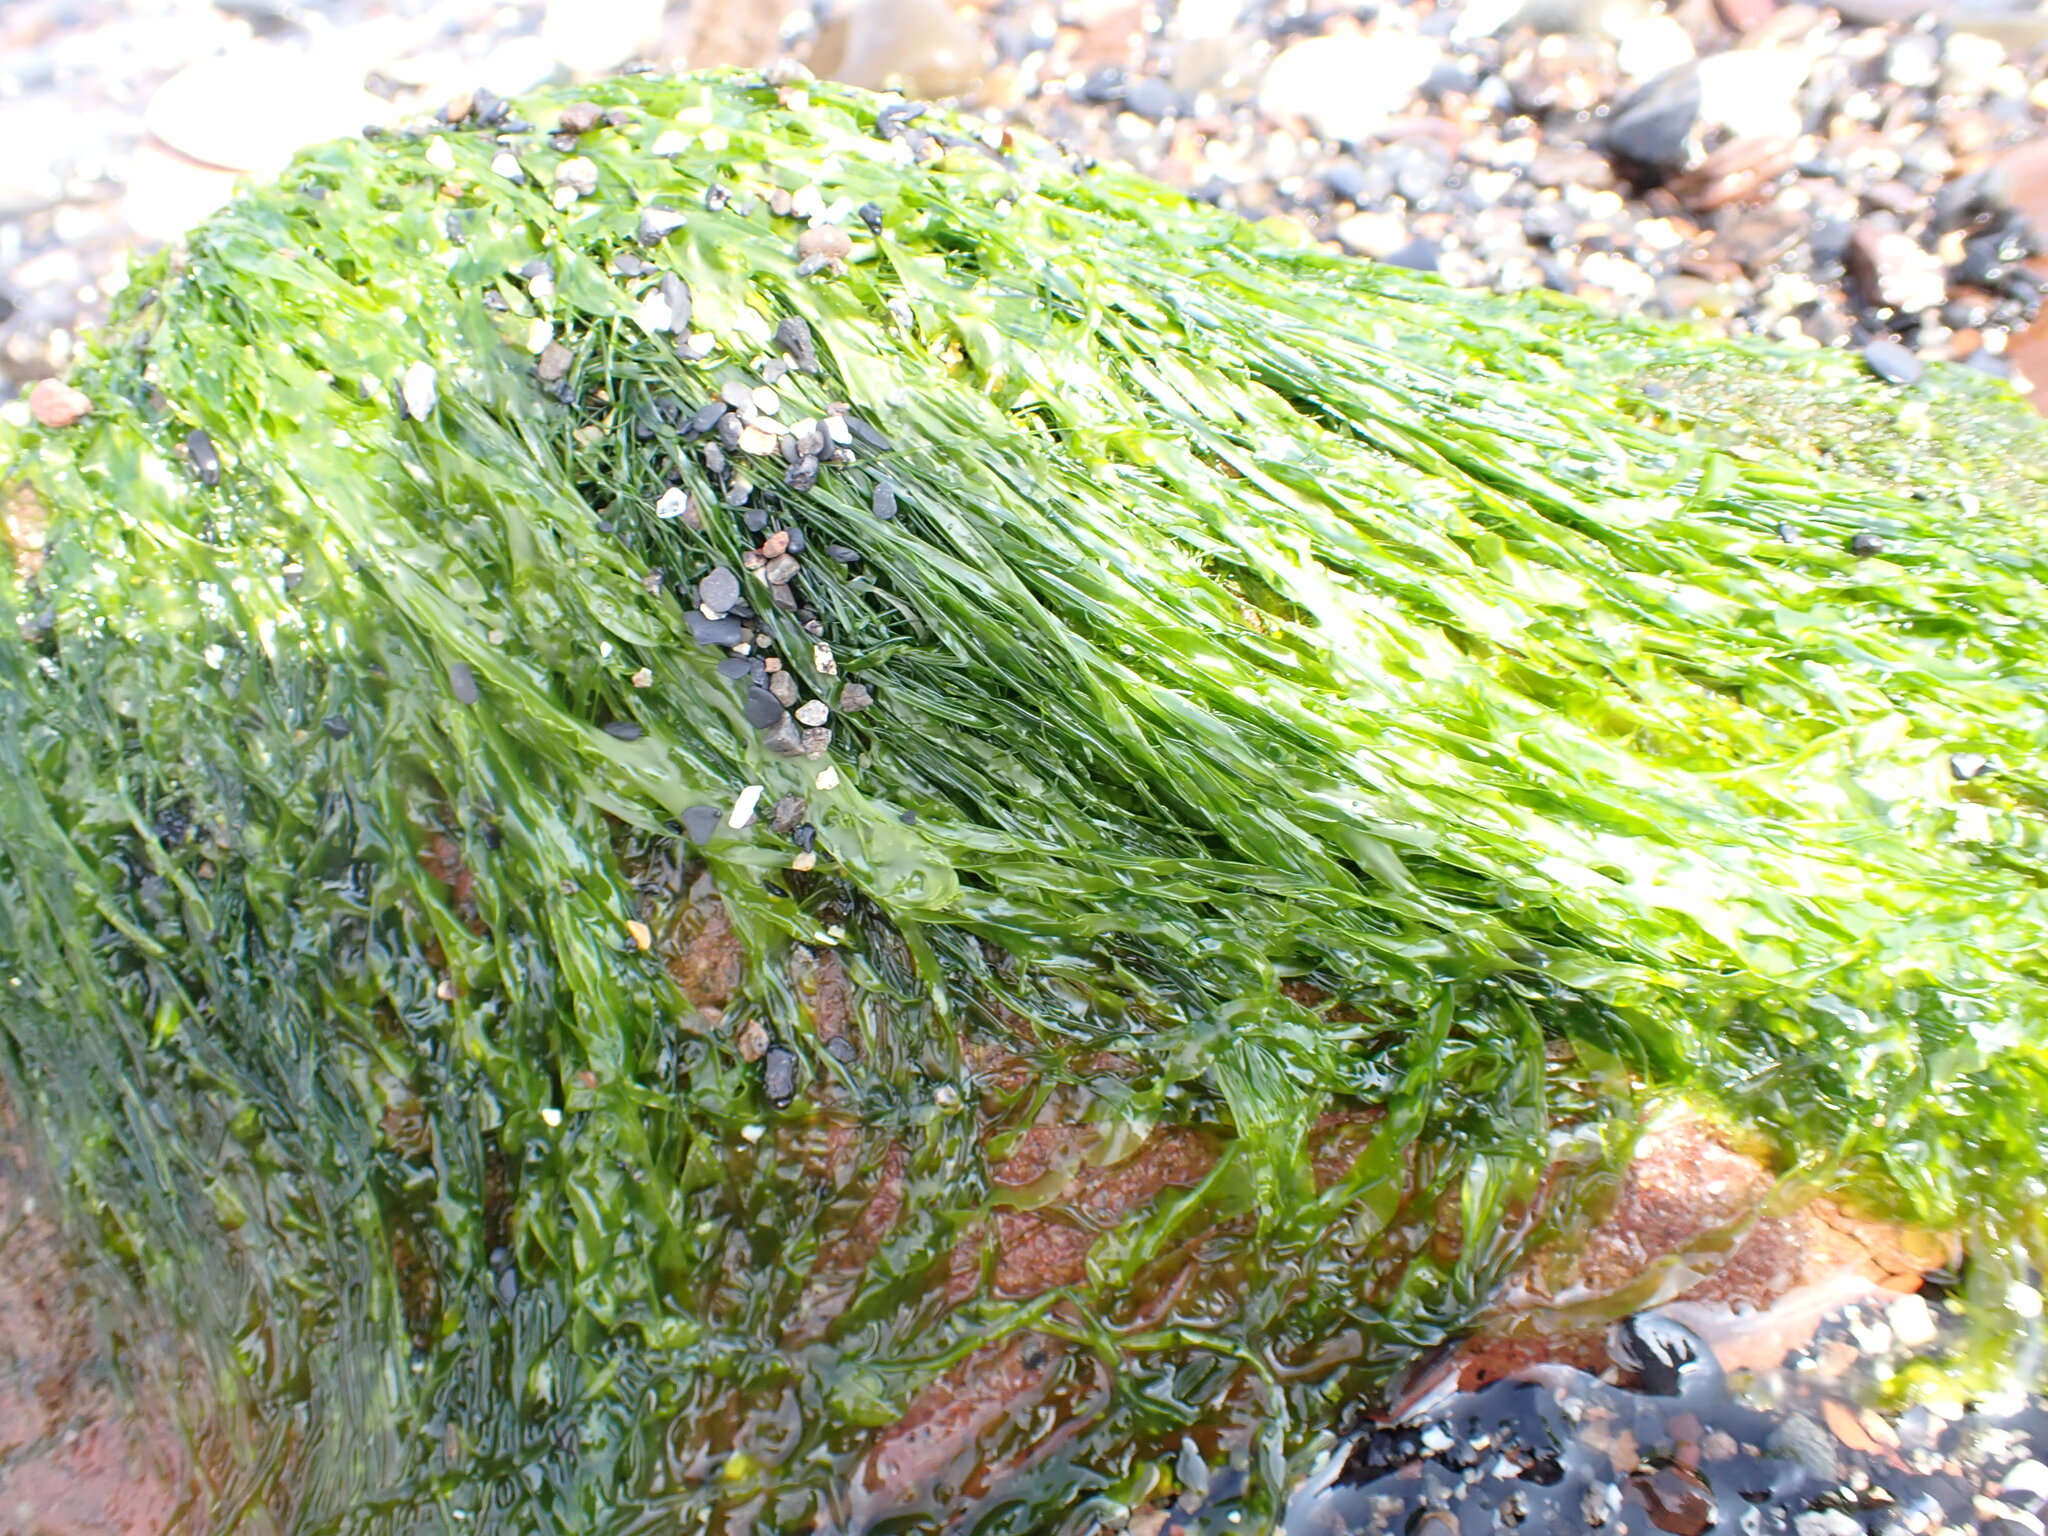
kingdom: Plantae
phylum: Chlorophyta
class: Ulvophyceae
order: Ulvales
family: Ulvaceae
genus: Ulva
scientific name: Ulva intestinalis
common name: Gut weed
